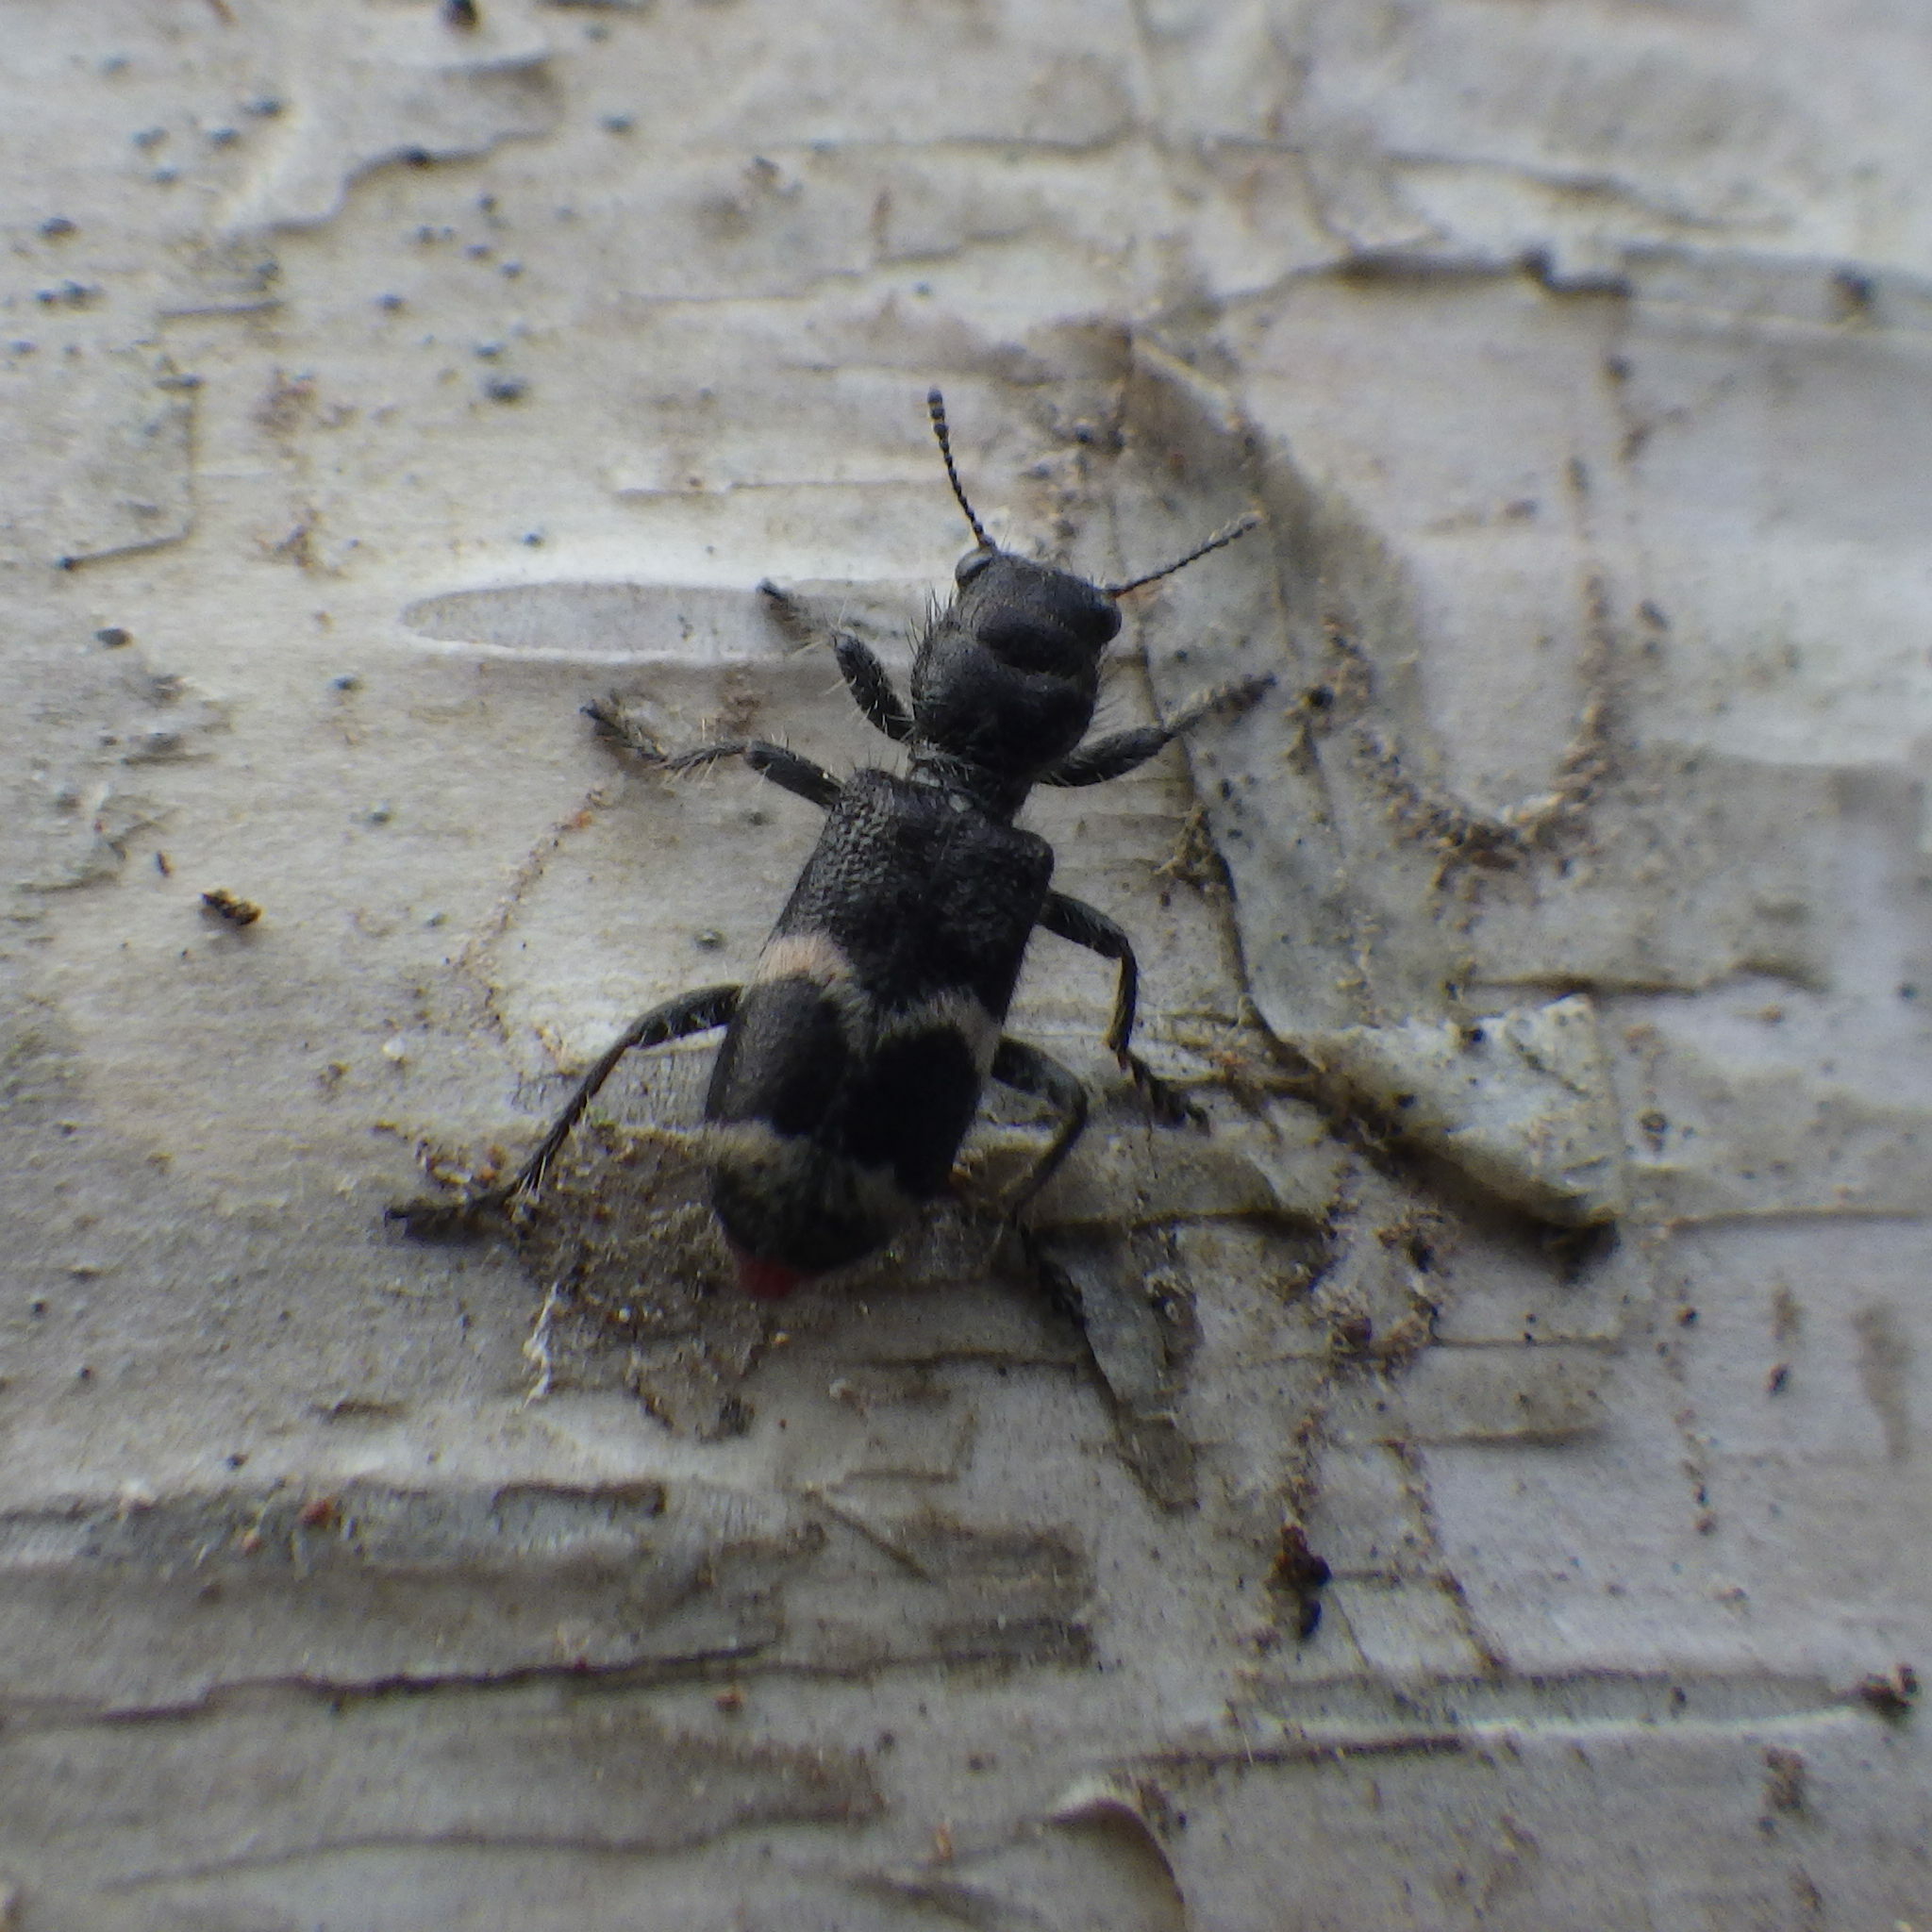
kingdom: Animalia
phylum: Arthropoda
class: Insecta
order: Coleoptera
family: Cleridae
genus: Enoclerus
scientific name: Enoclerus nigripes
